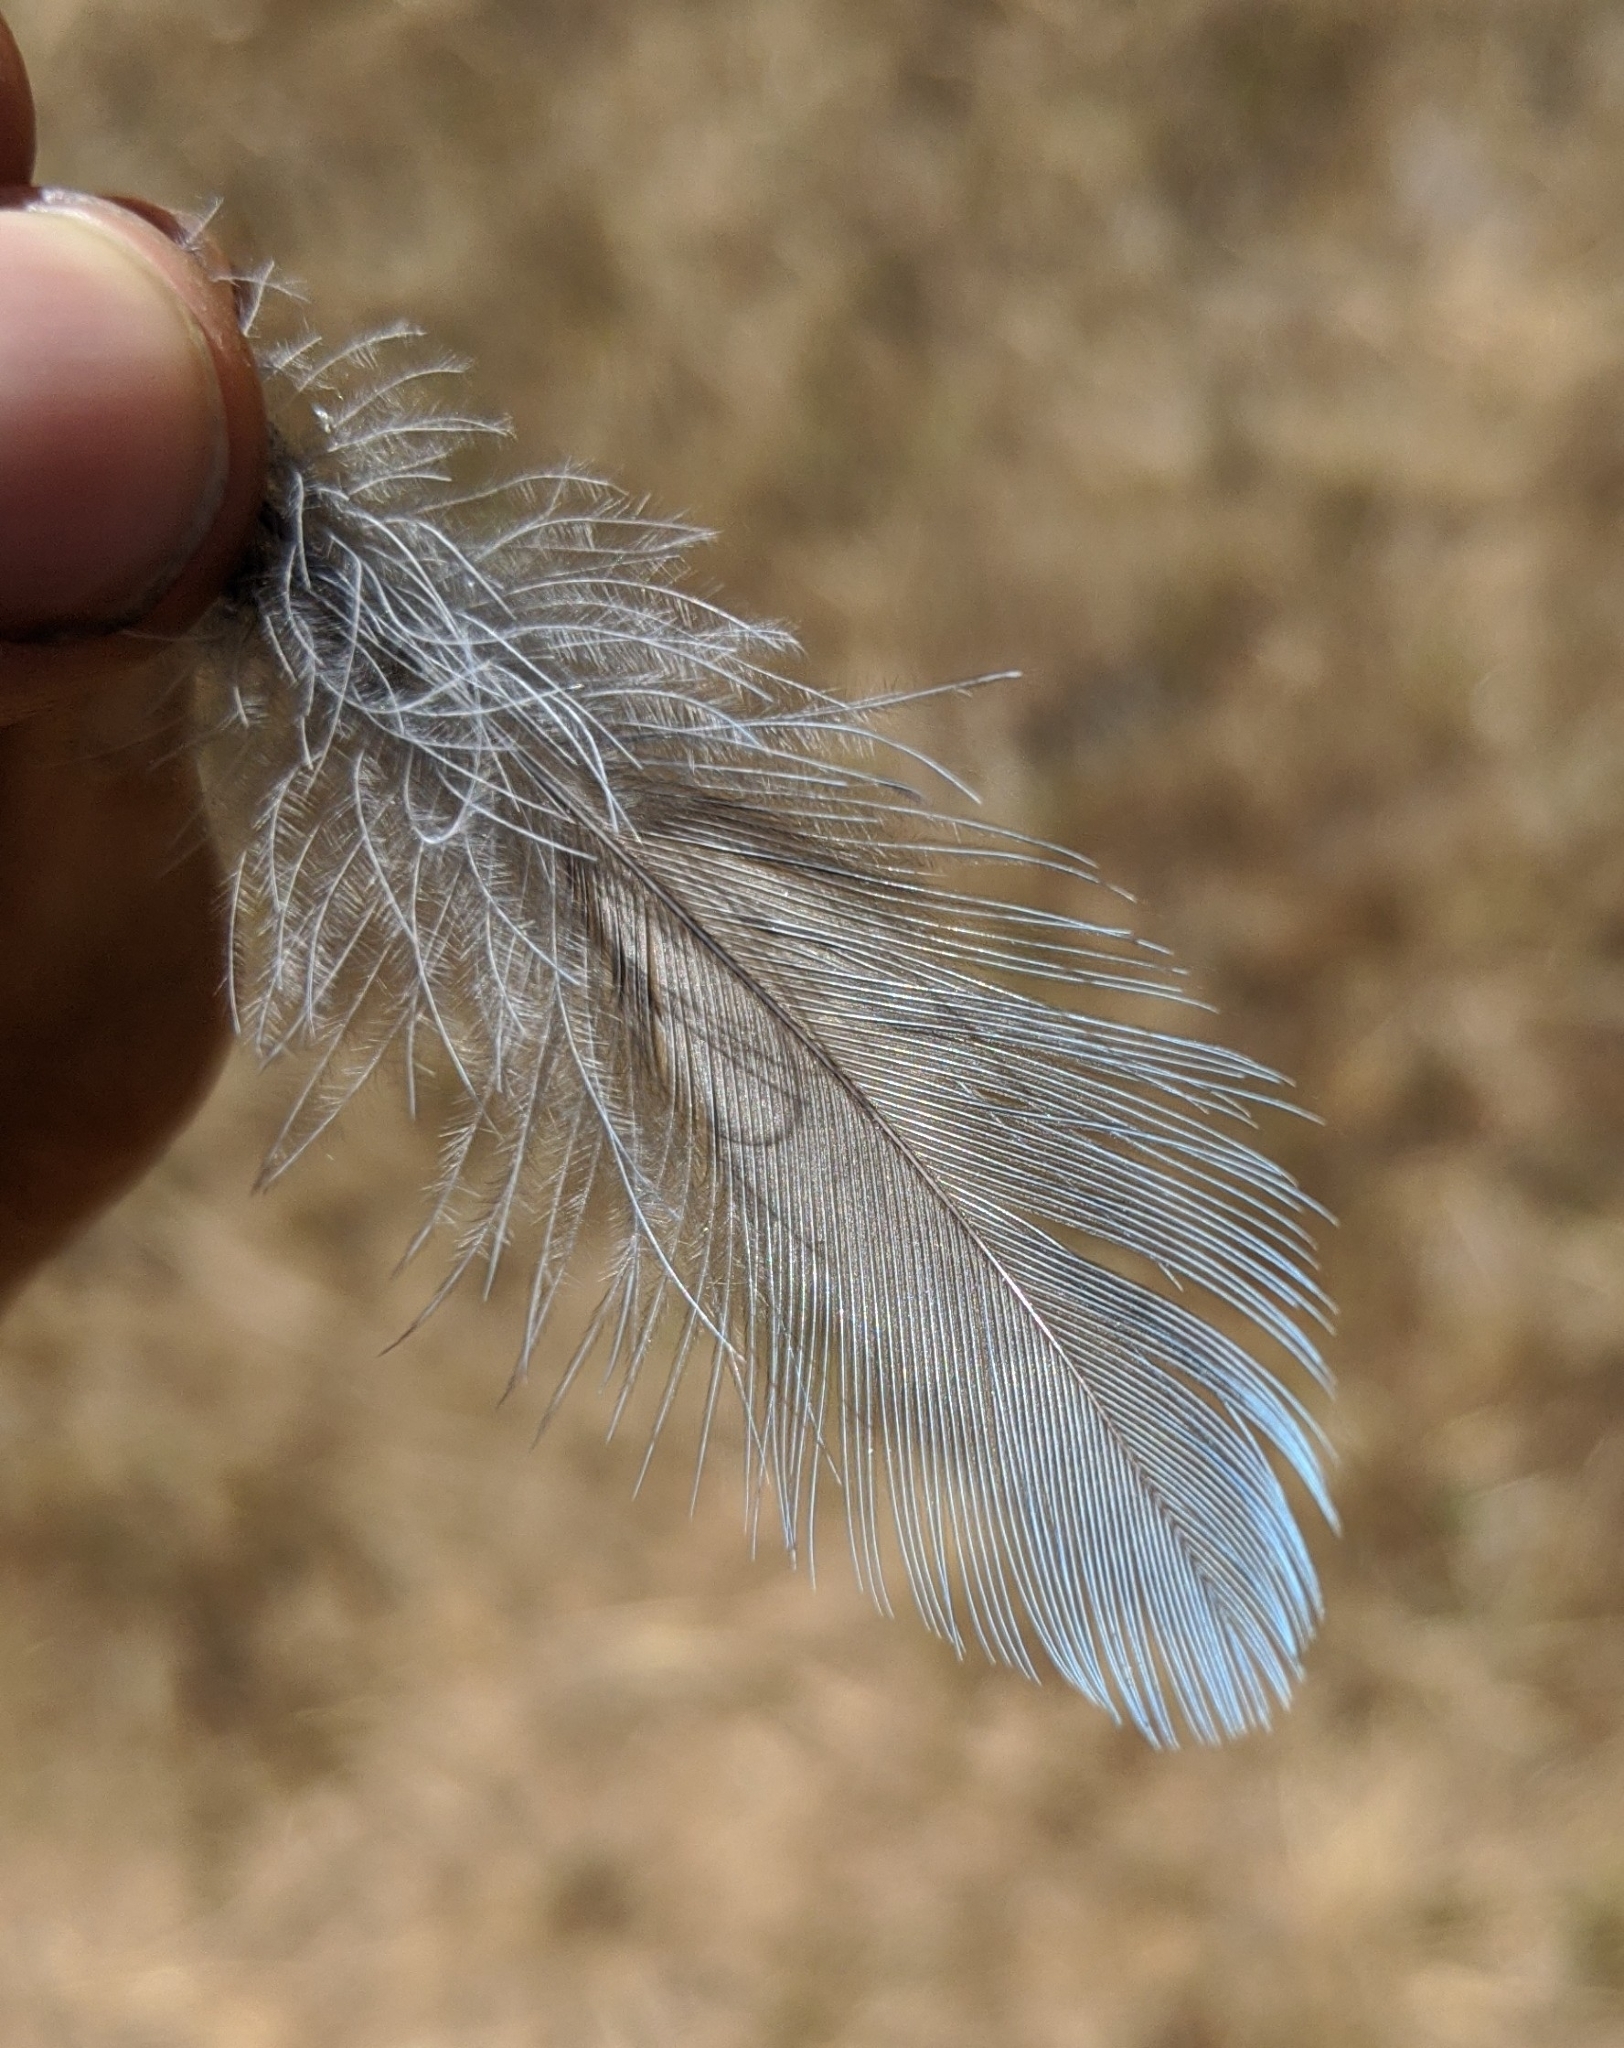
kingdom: Animalia
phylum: Chordata
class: Aves
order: Passeriformes
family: Corvidae
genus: Cyanocitta
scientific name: Cyanocitta stelleri
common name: Steller's jay
